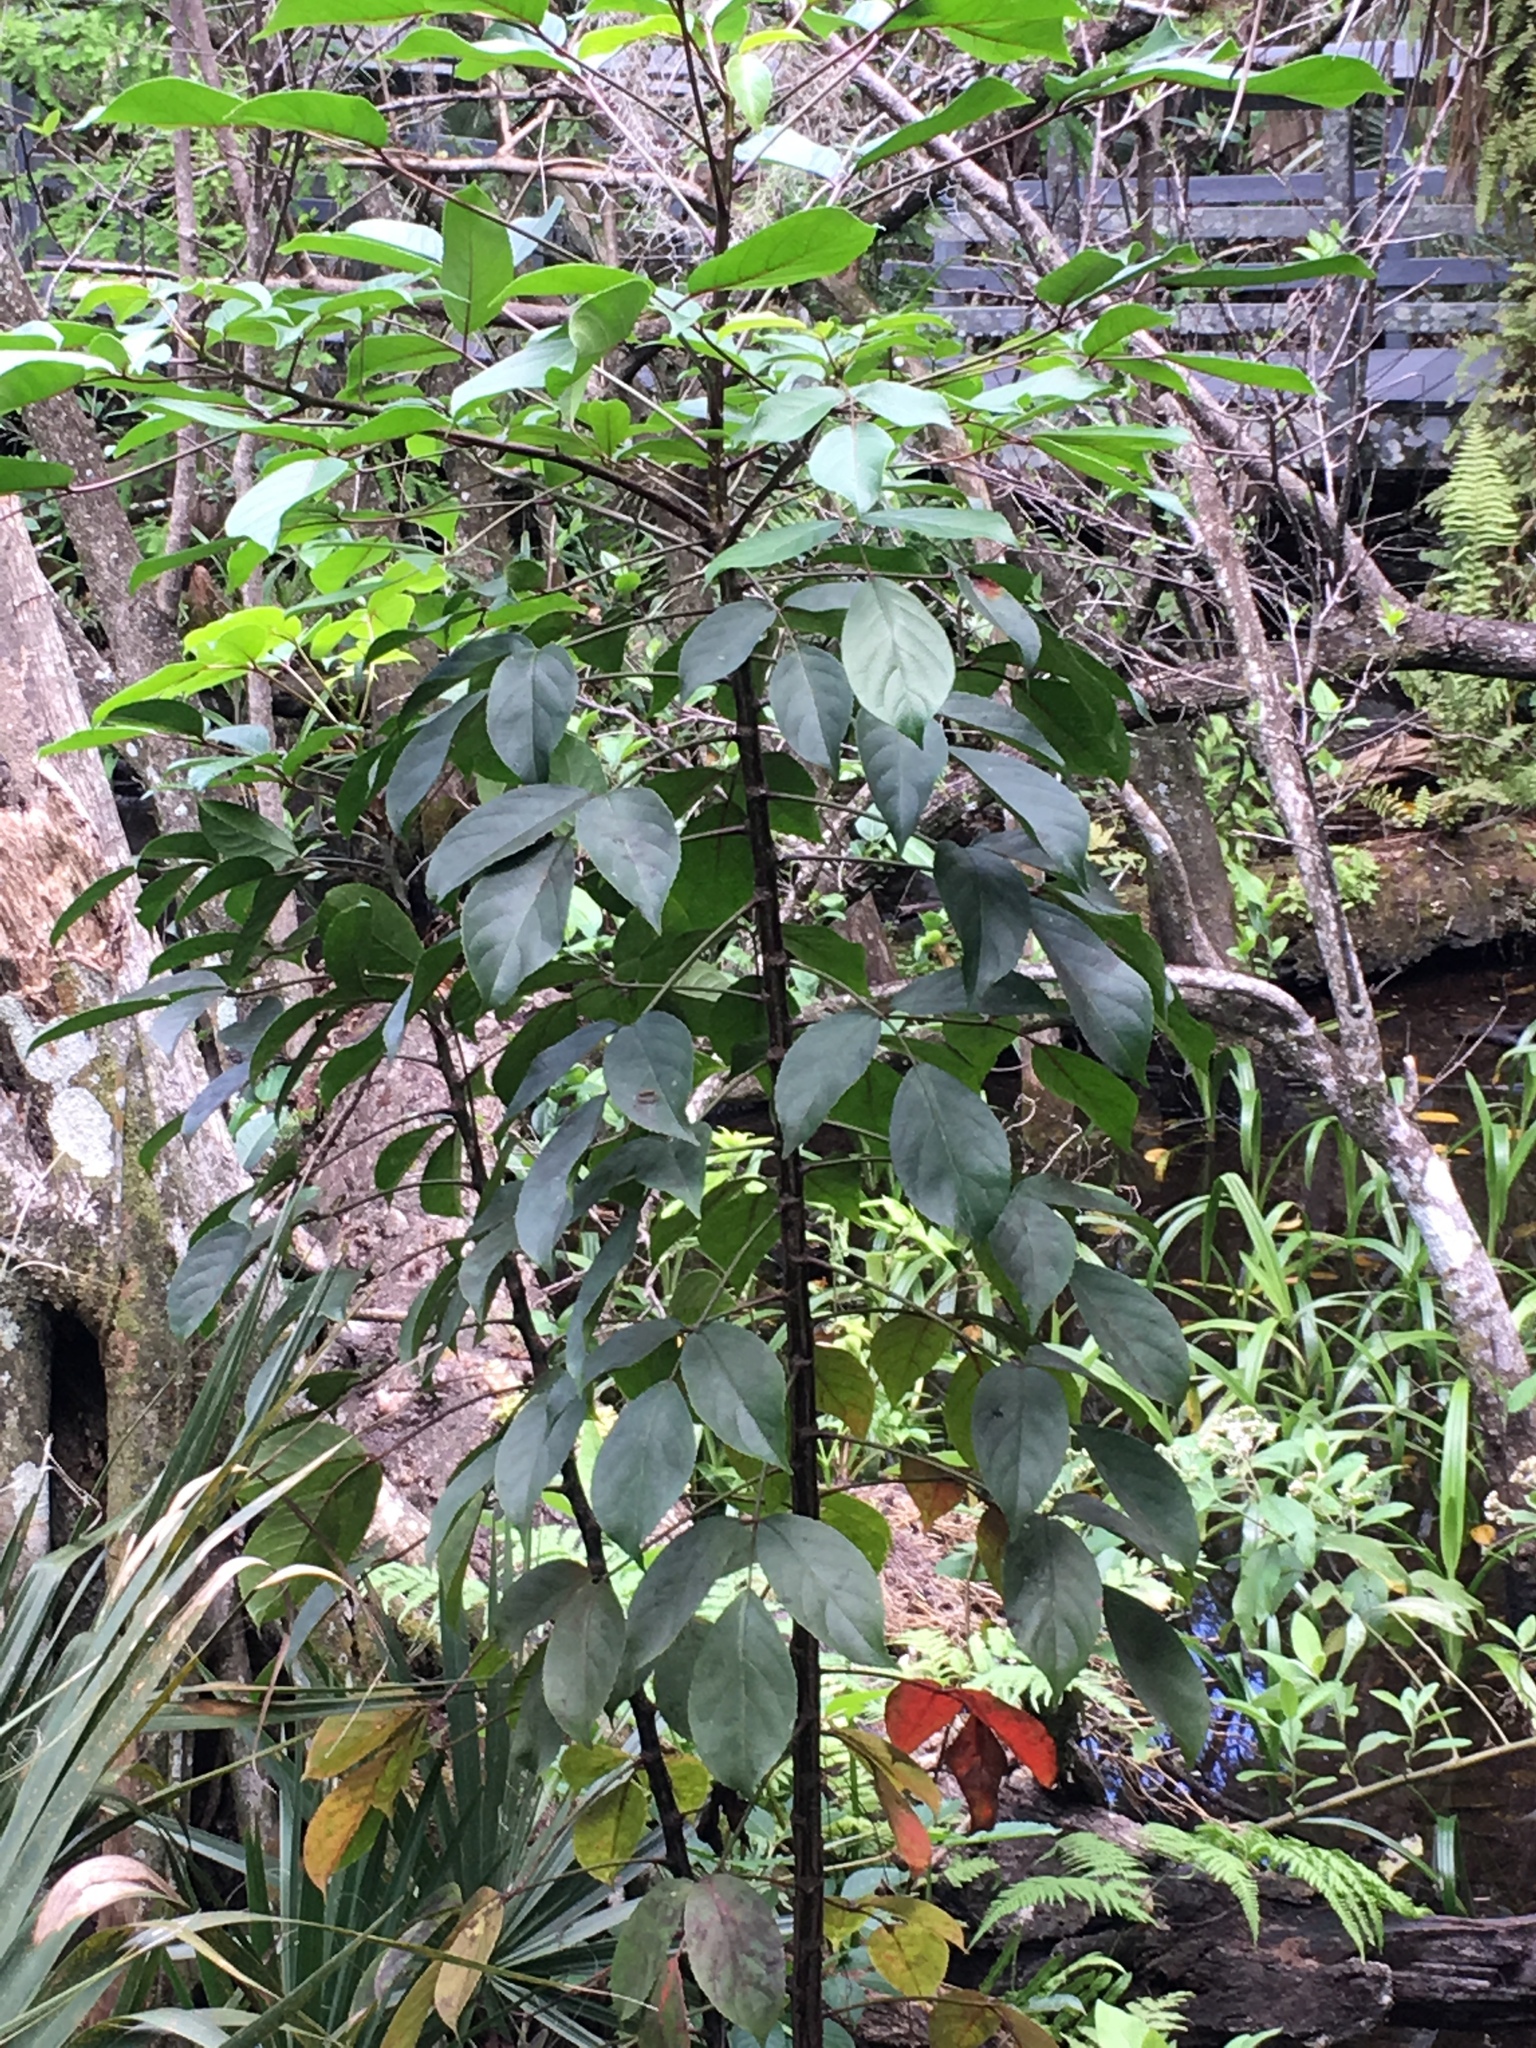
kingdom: Plantae
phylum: Tracheophyta
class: Magnoliopsida
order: Malpighiales
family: Phyllanthaceae
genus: Bischofia
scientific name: Bischofia javanica
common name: Javanese bishopwood
